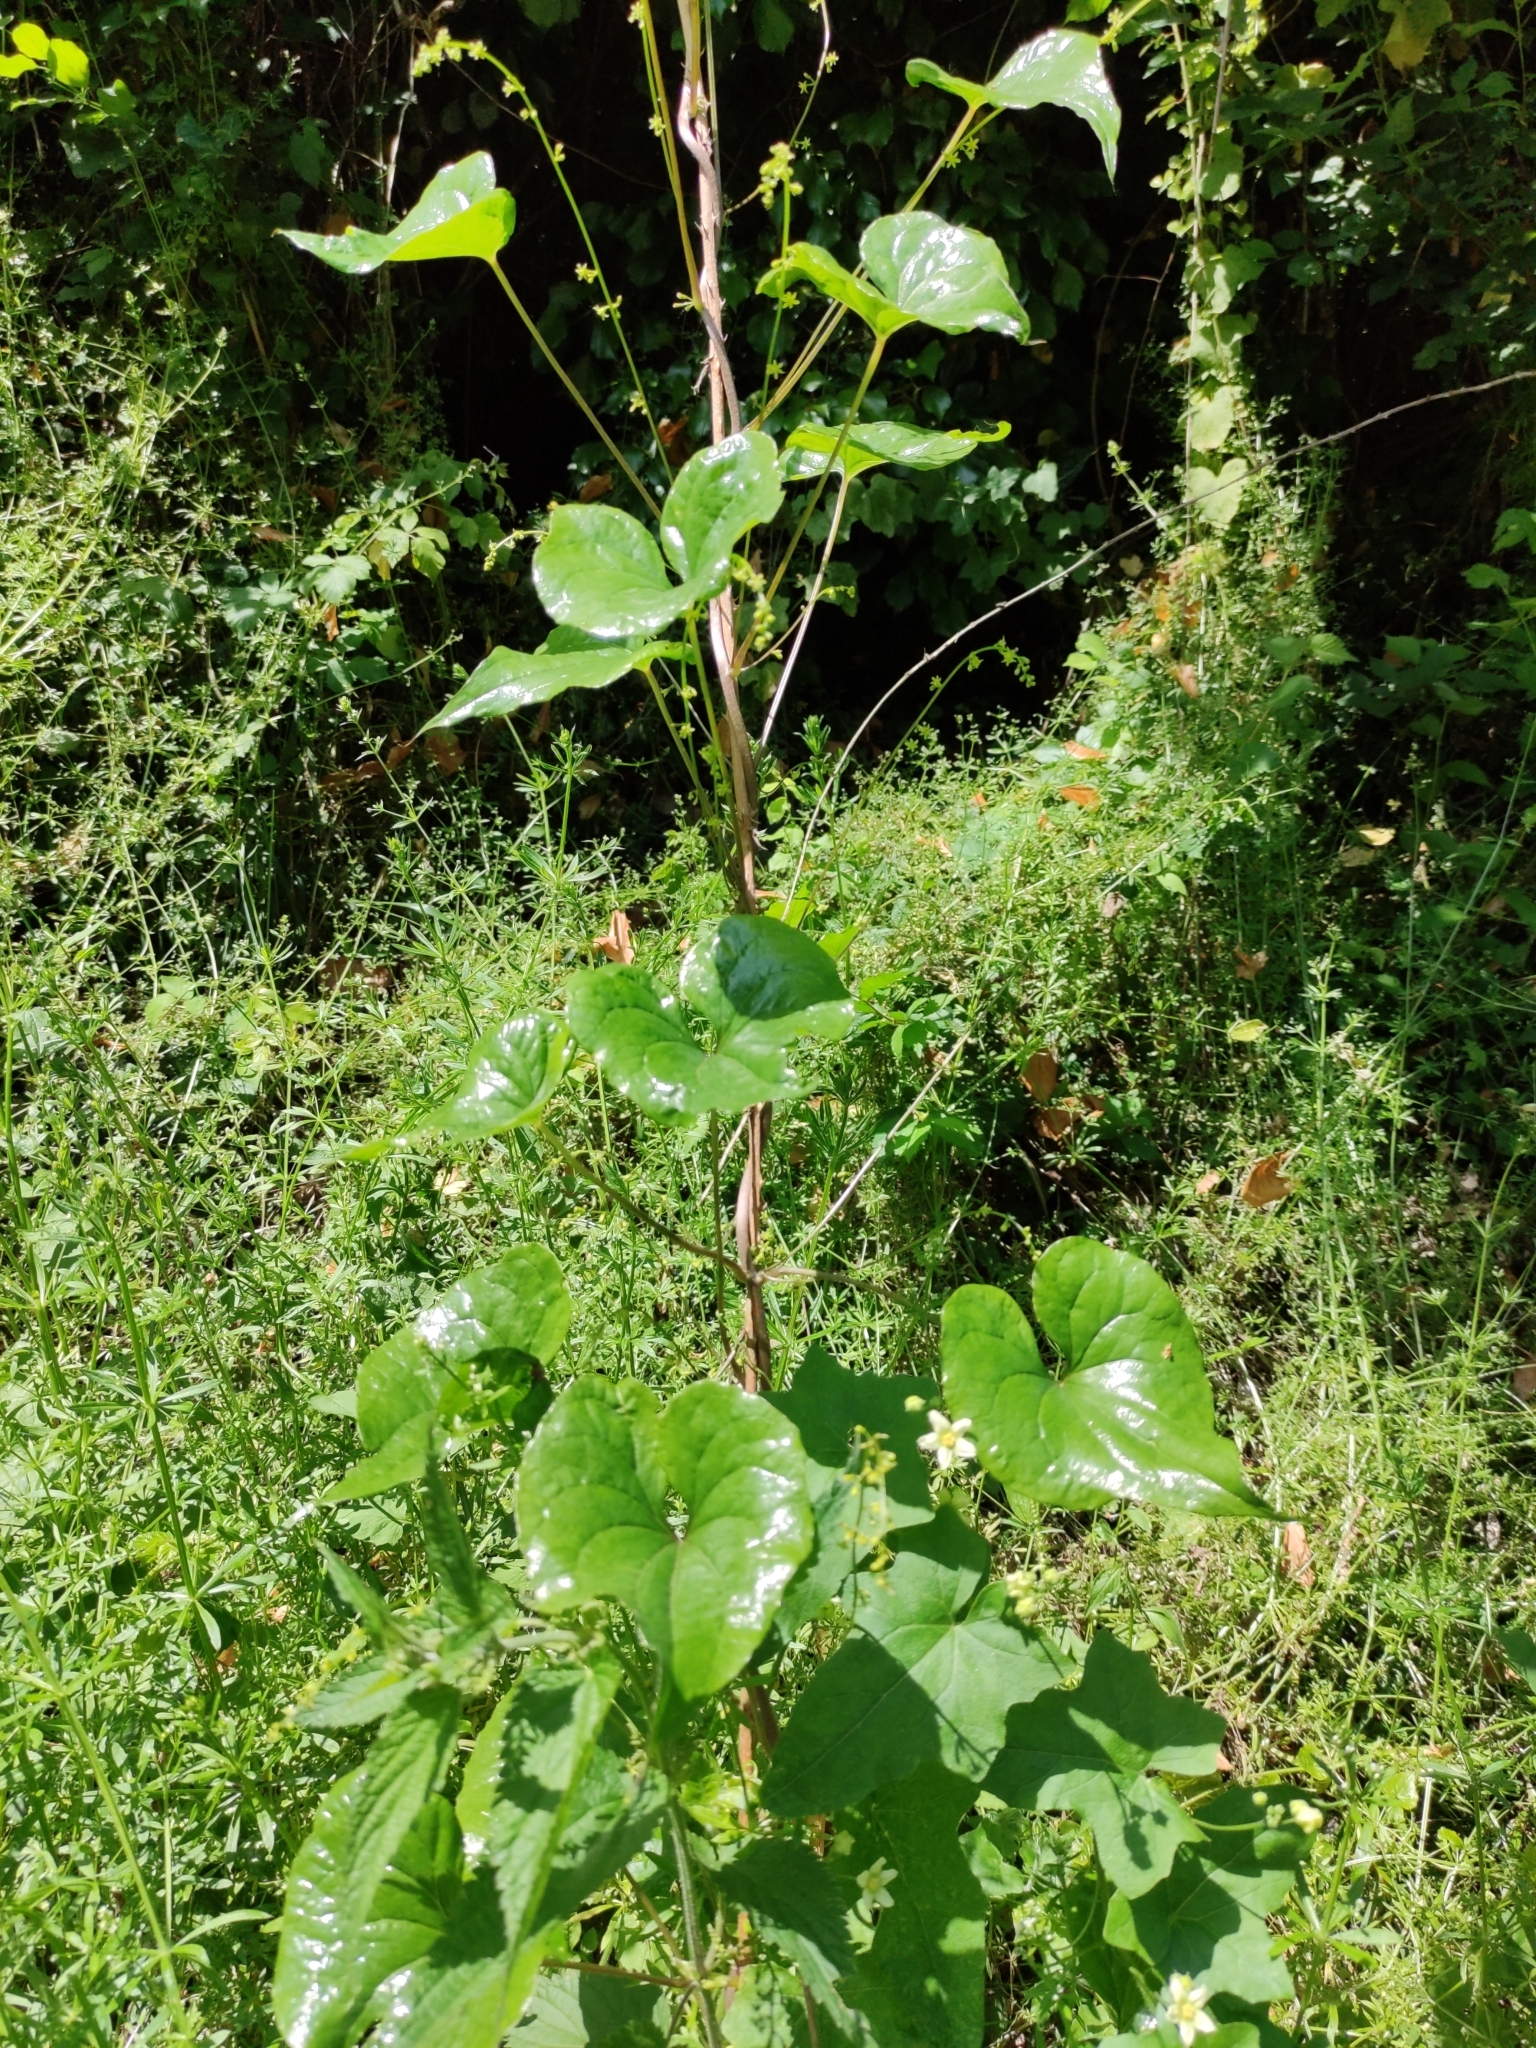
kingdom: Plantae
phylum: Tracheophyta
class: Liliopsida
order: Dioscoreales
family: Dioscoreaceae
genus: Dioscorea
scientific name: Dioscorea communis
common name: Black-bindweed
